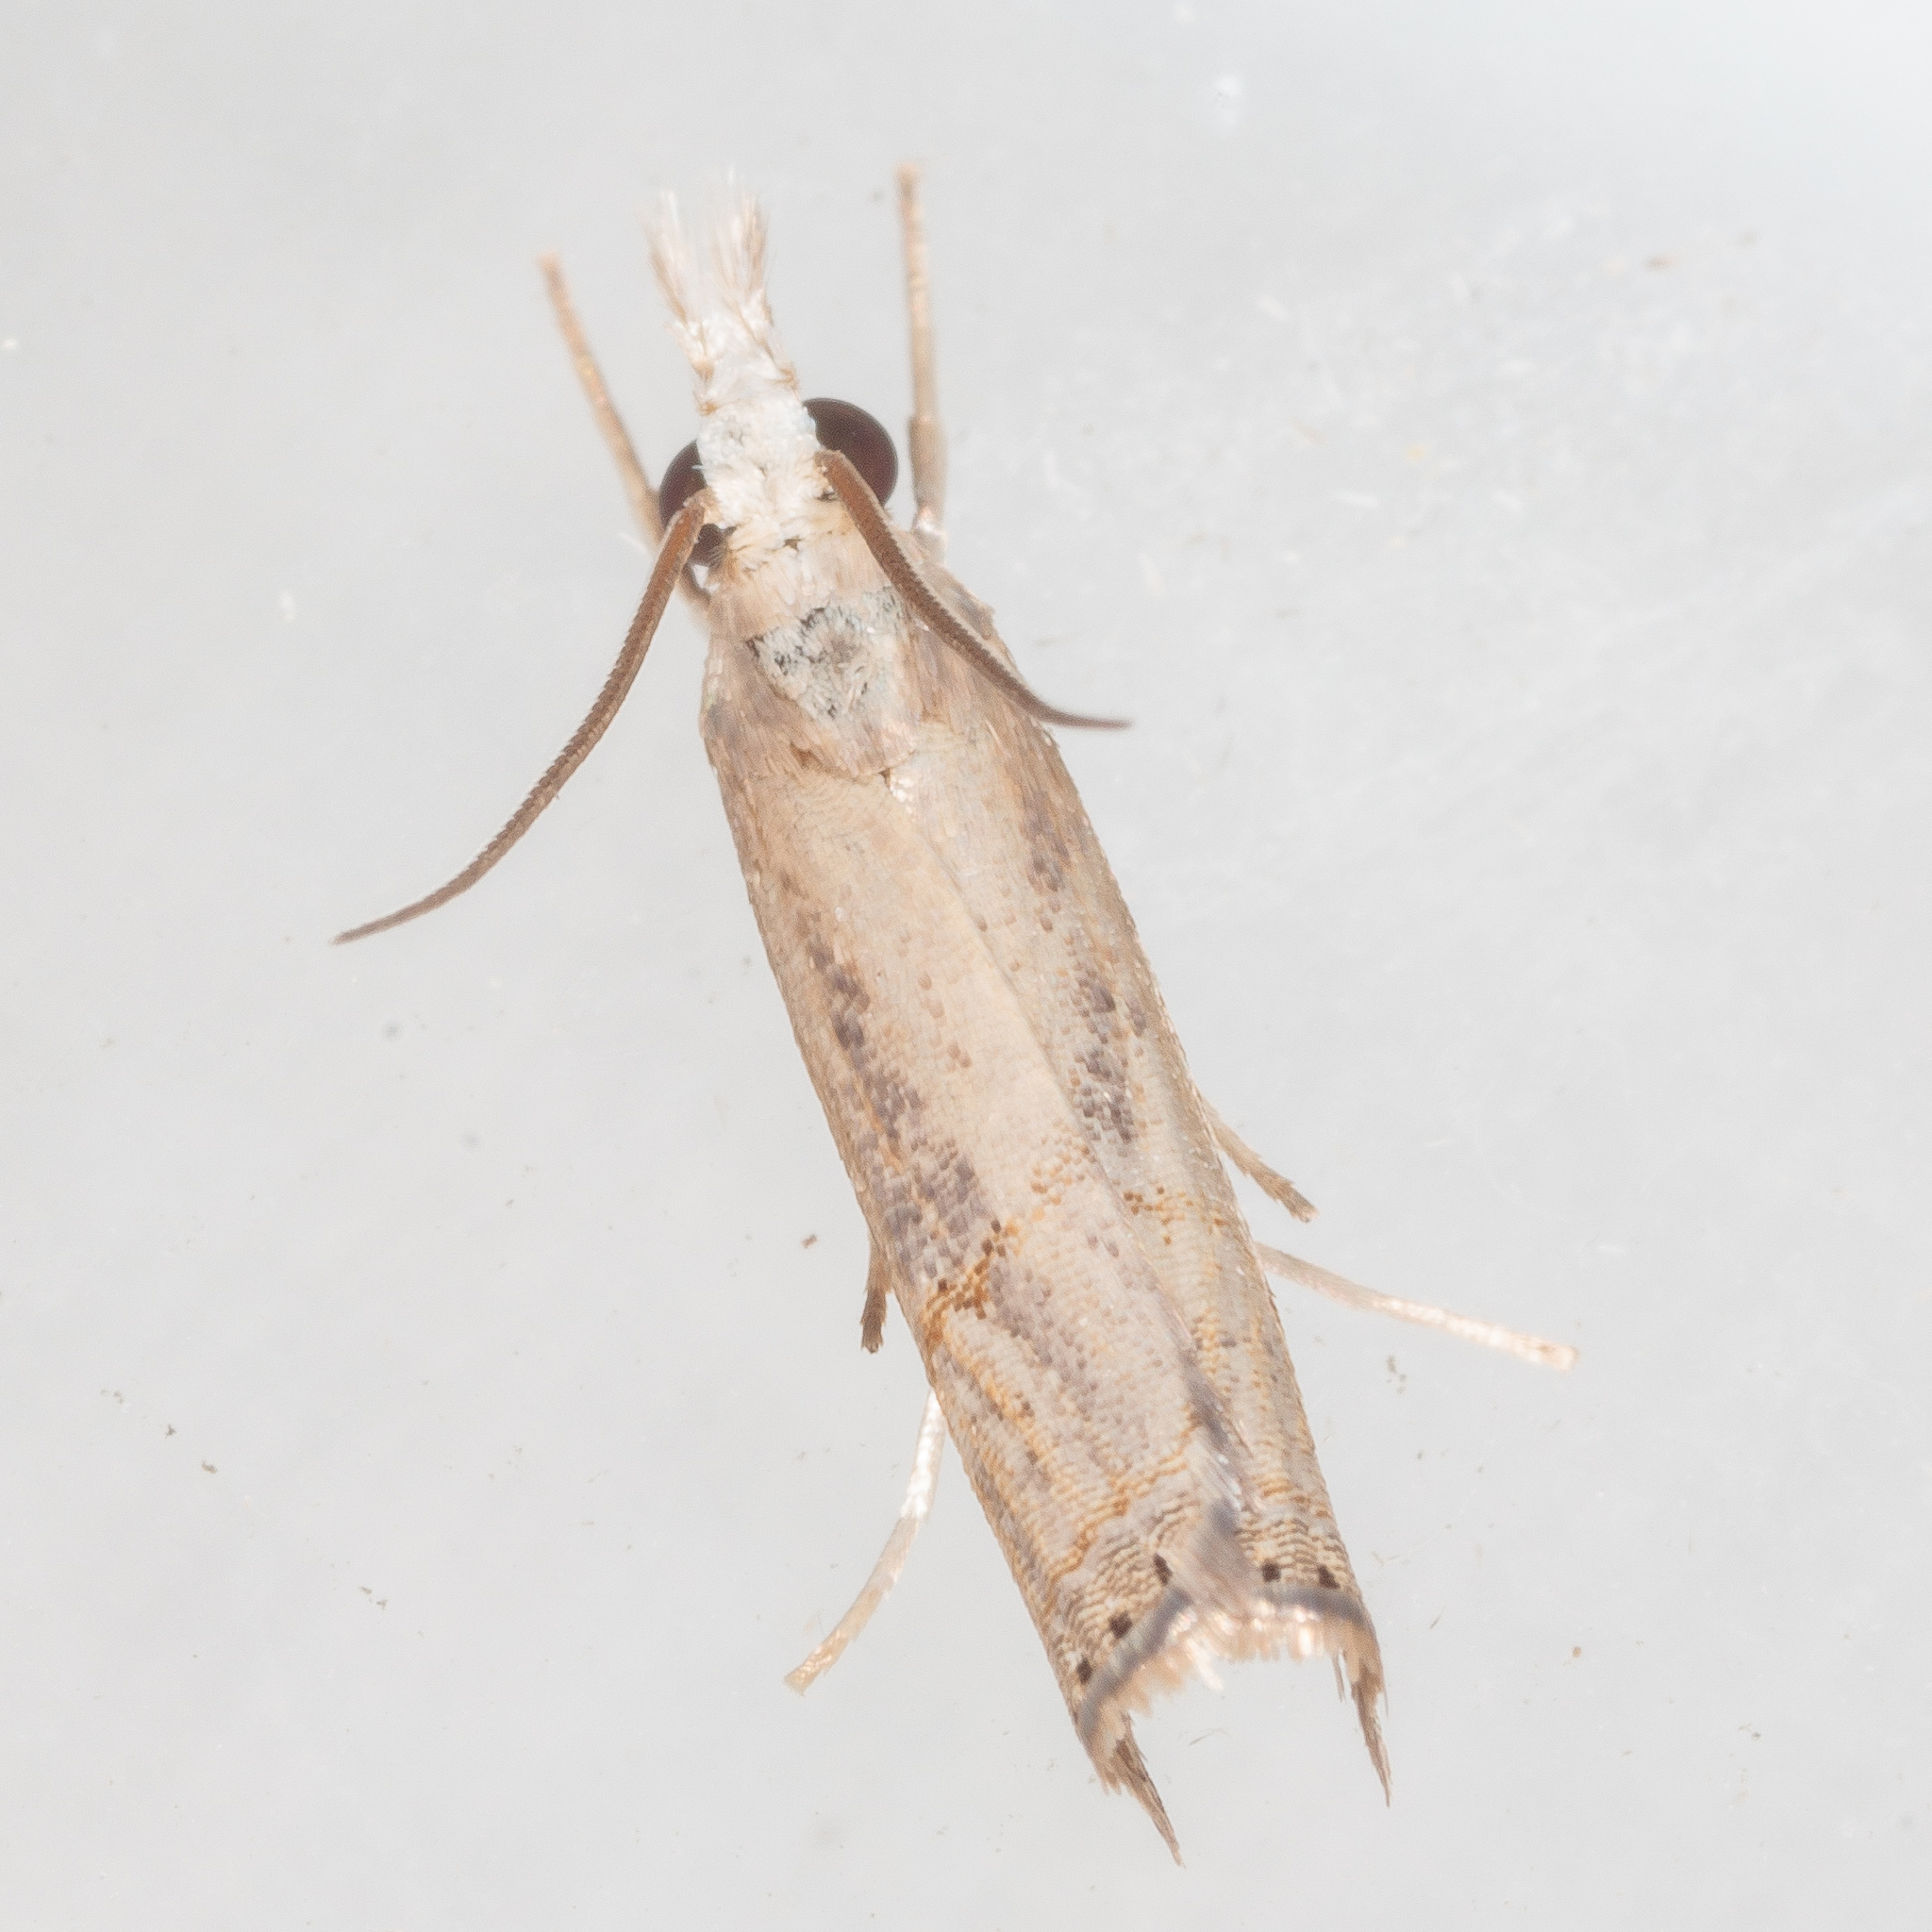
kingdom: Animalia
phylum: Arthropoda
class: Insecta
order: Lepidoptera
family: Crambidae
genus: Parapediasia
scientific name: Parapediasia teterellus
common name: Bluegrass webworm moth
